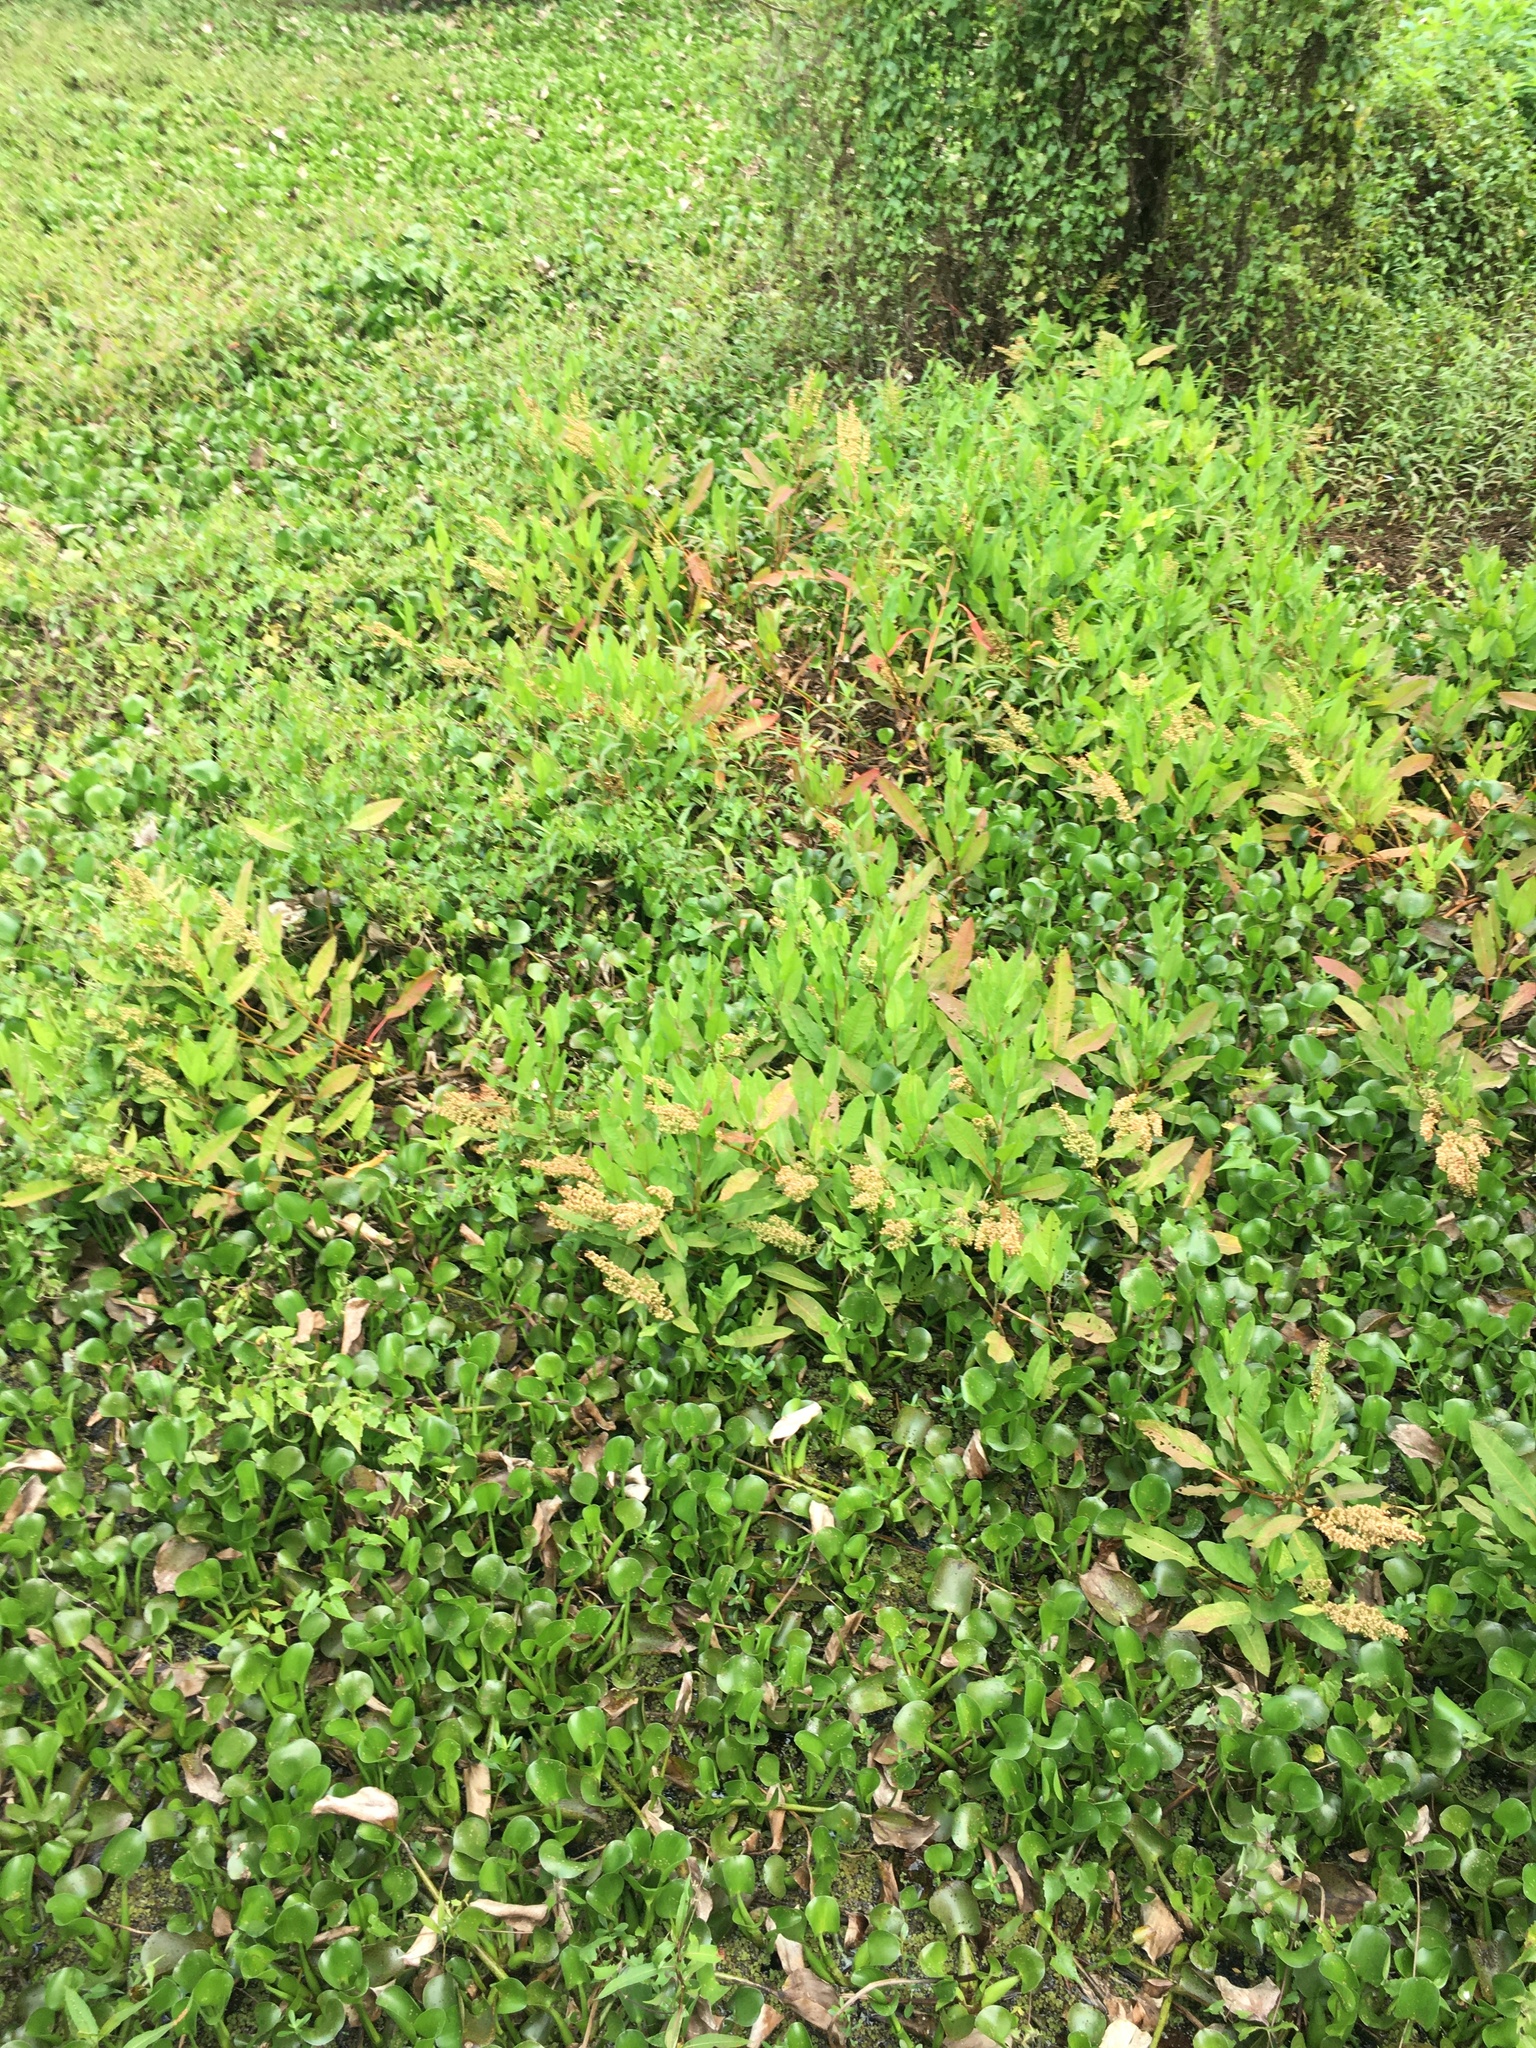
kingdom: Plantae
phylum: Tracheophyta
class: Magnoliopsida
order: Caryophyllales
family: Polygonaceae
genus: Rumex
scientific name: Rumex verticillatus
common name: Swamp dock
